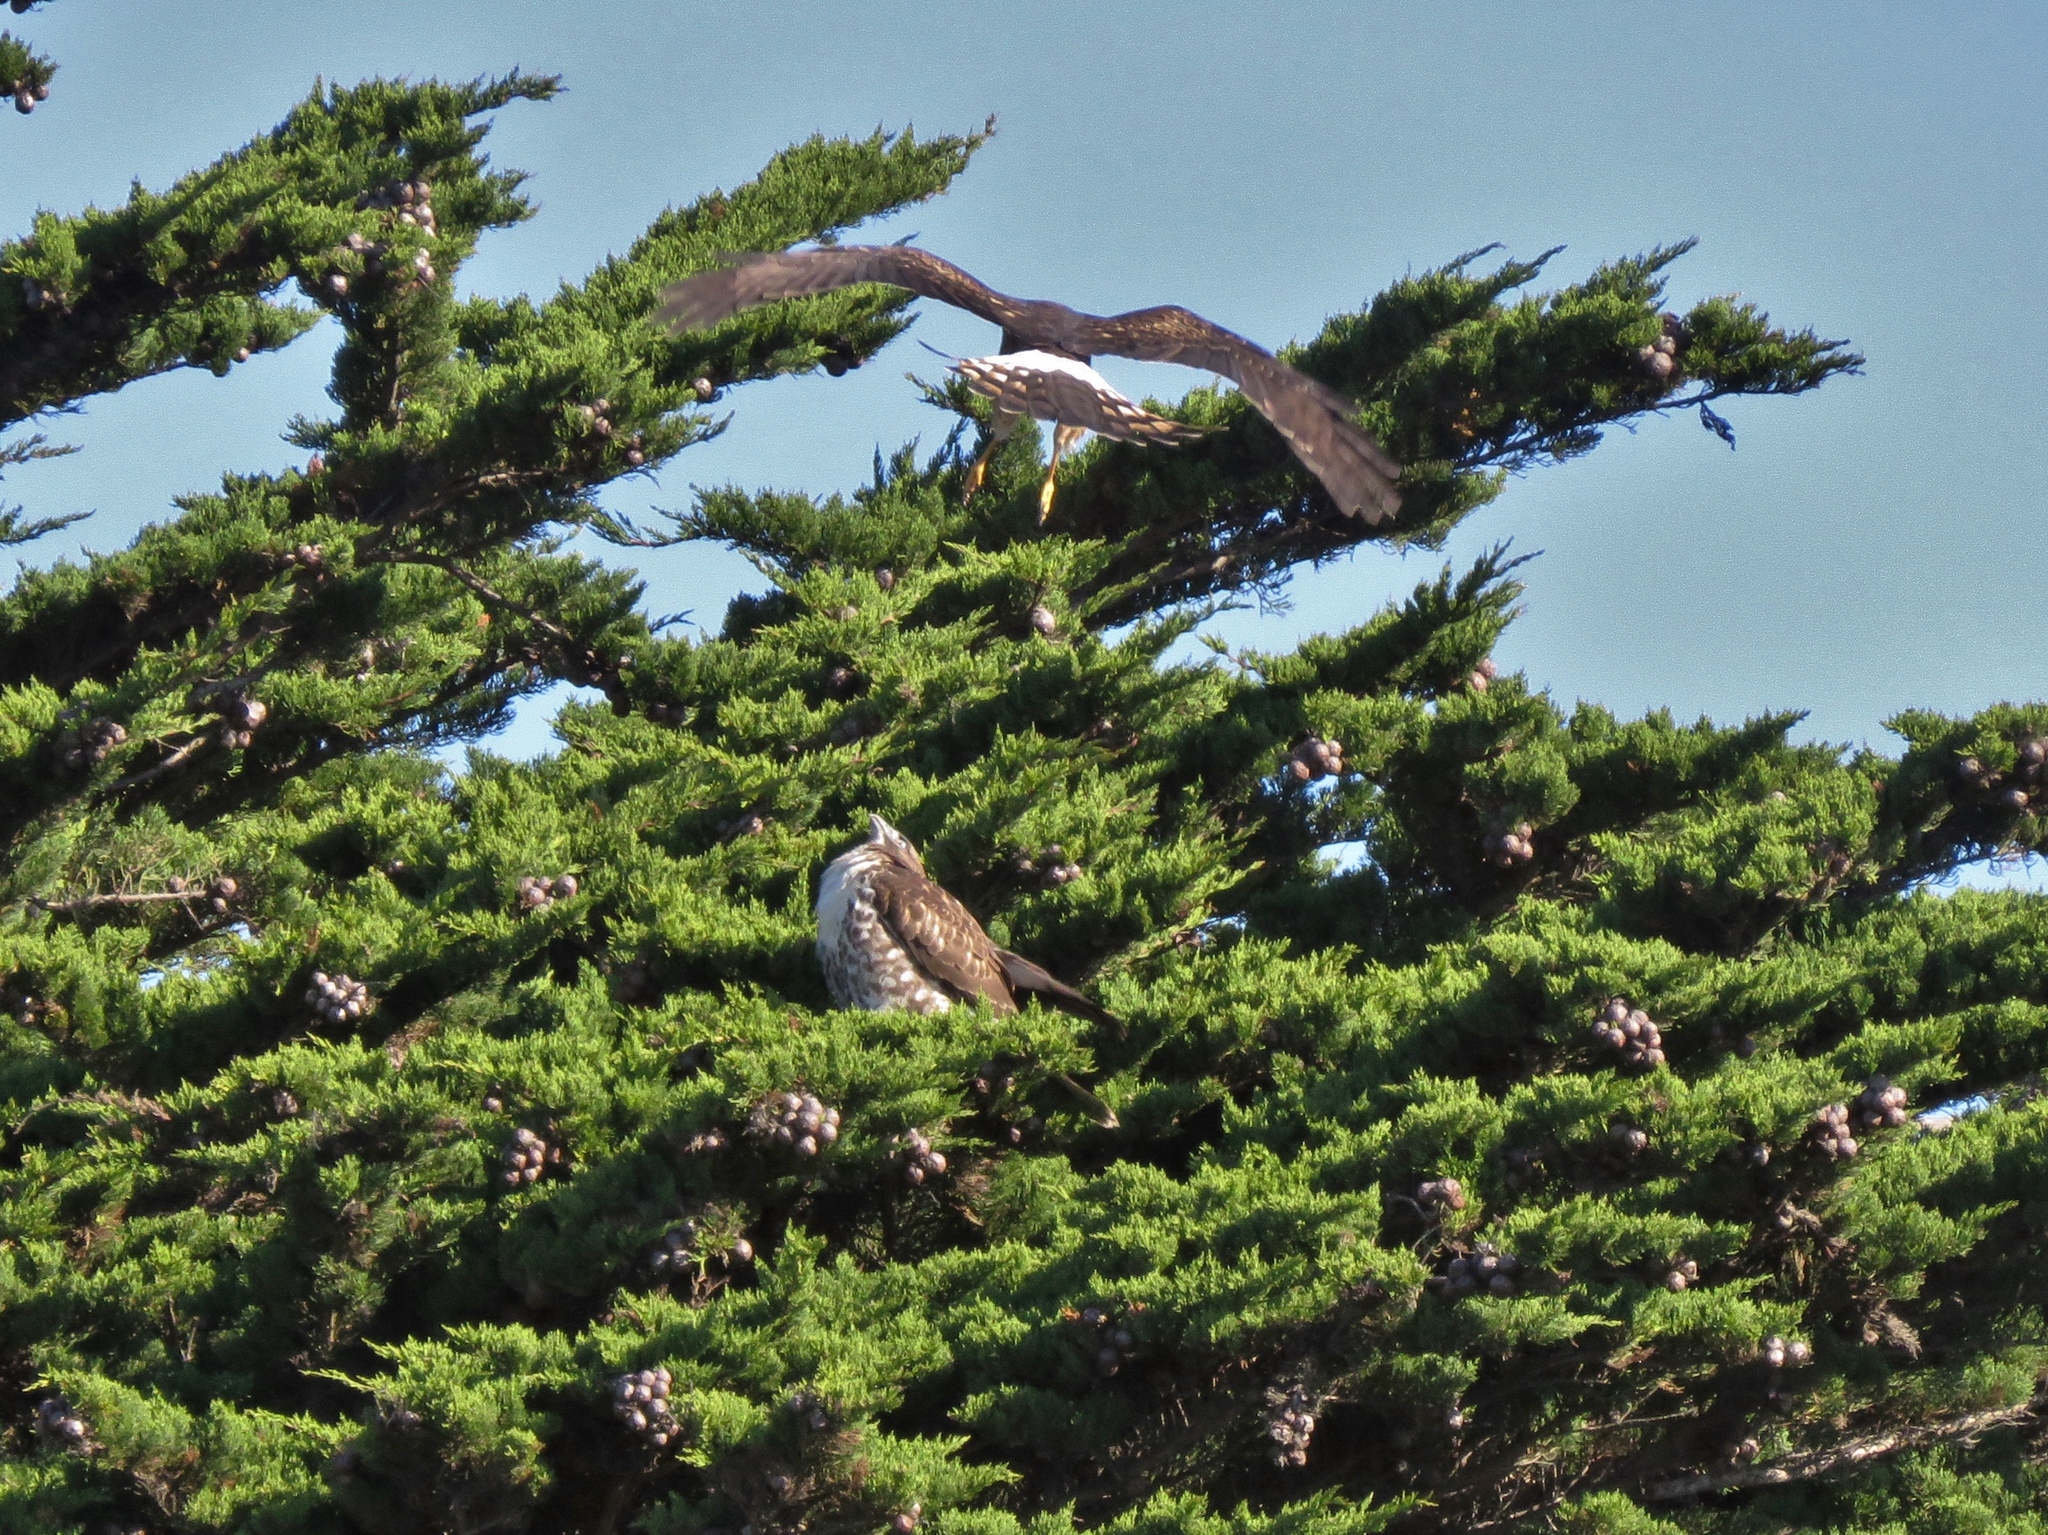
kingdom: Animalia
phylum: Chordata
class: Aves
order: Accipitriformes
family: Accipitridae
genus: Circus
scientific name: Circus cyaneus
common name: Hen harrier
